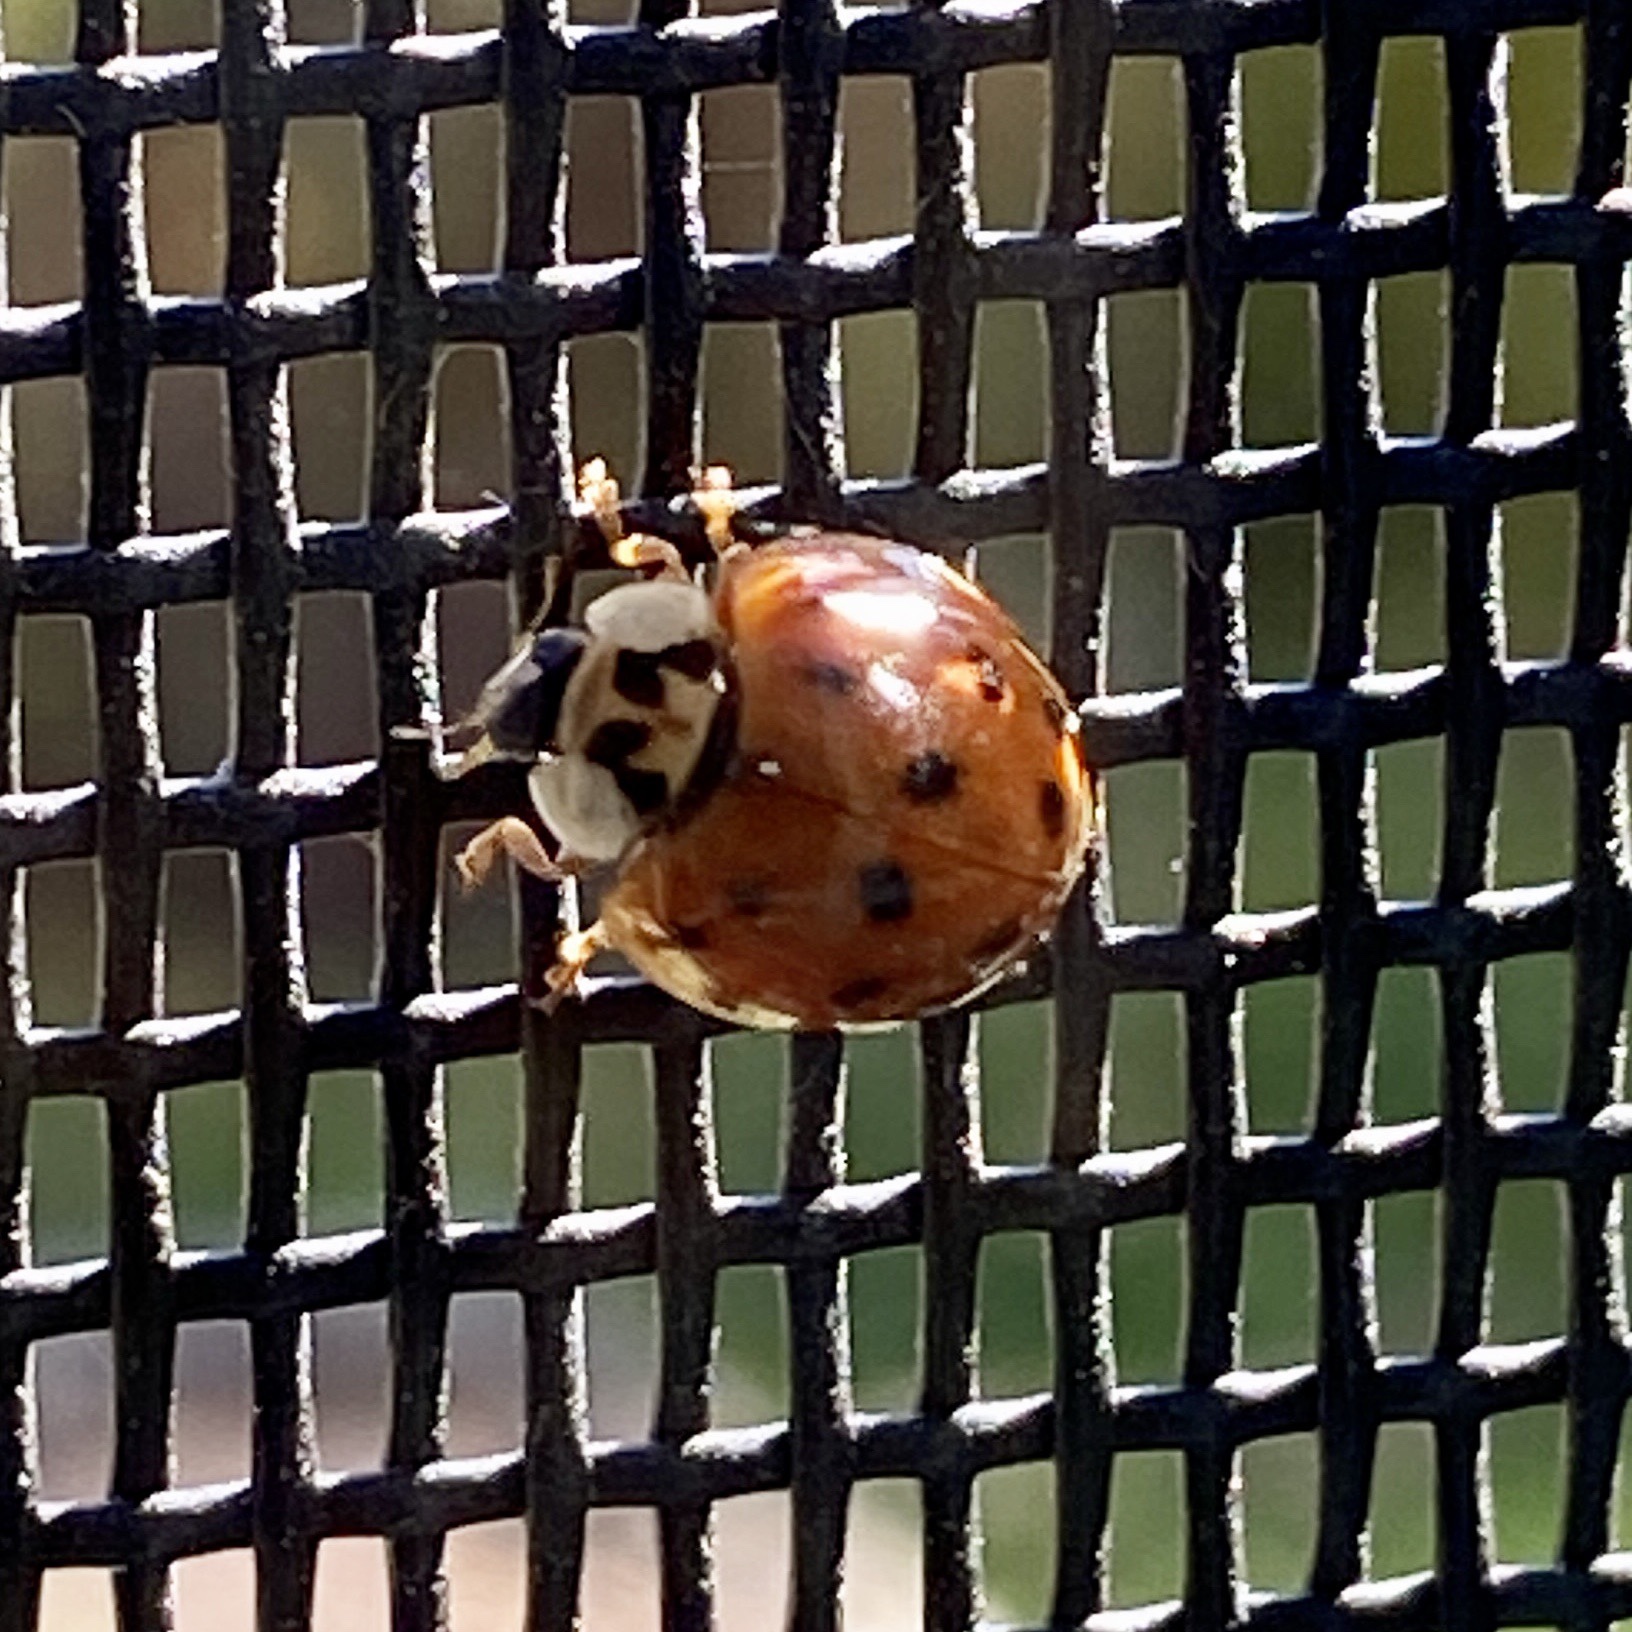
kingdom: Animalia
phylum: Arthropoda
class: Insecta
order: Coleoptera
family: Coccinellidae
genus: Harmonia
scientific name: Harmonia axyridis
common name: Harlequin ladybird
